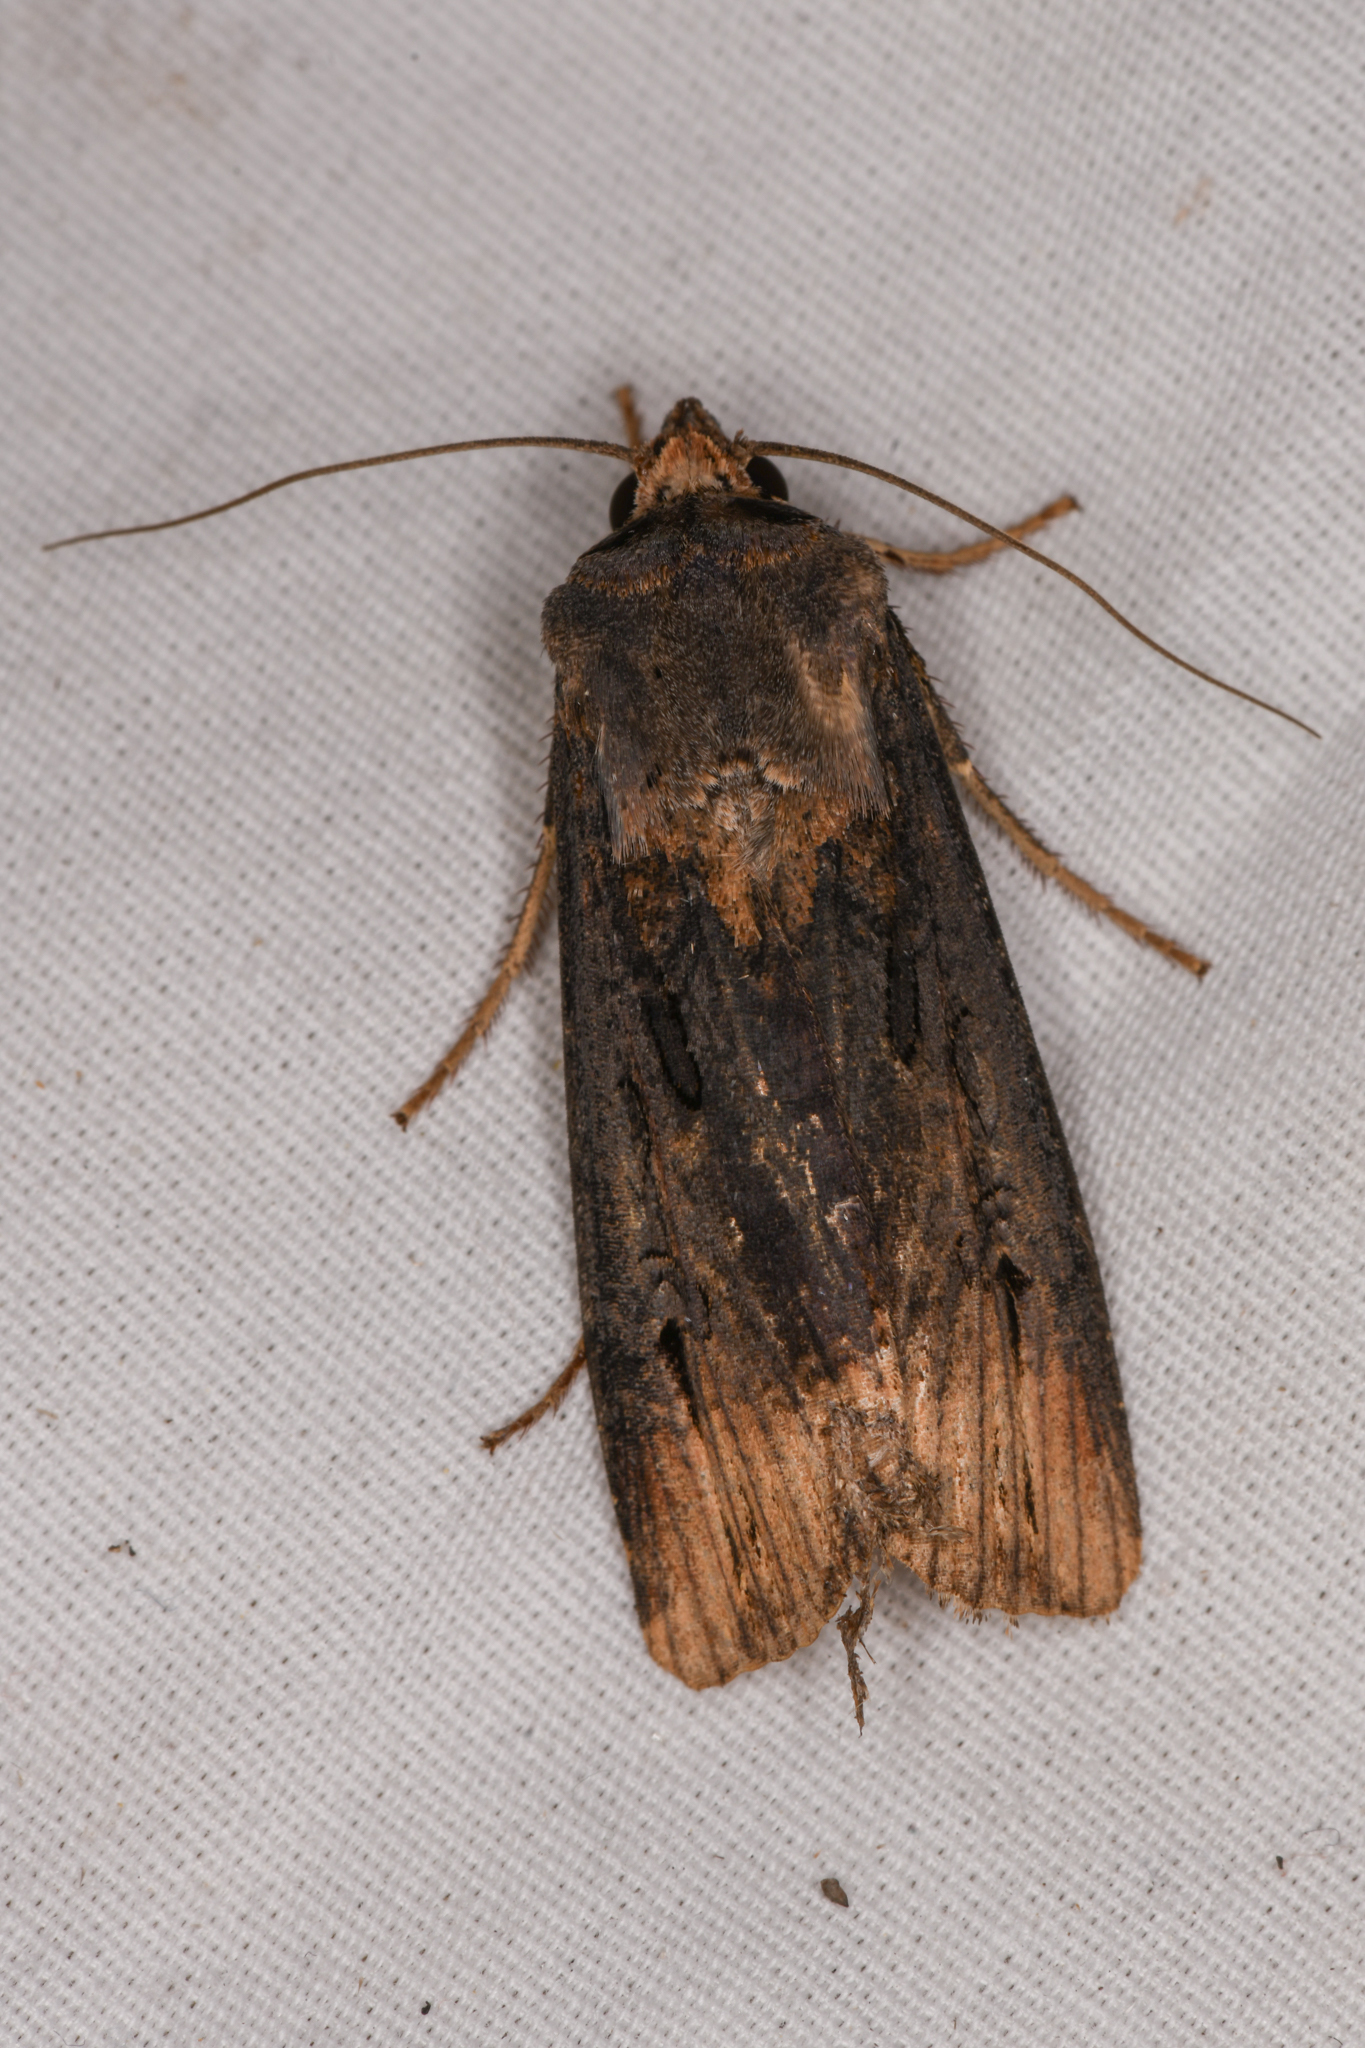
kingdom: Animalia
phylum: Arthropoda
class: Insecta
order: Lepidoptera
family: Noctuidae
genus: Agrotis
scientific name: Agrotis ipsilon
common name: Dark sword-grass
